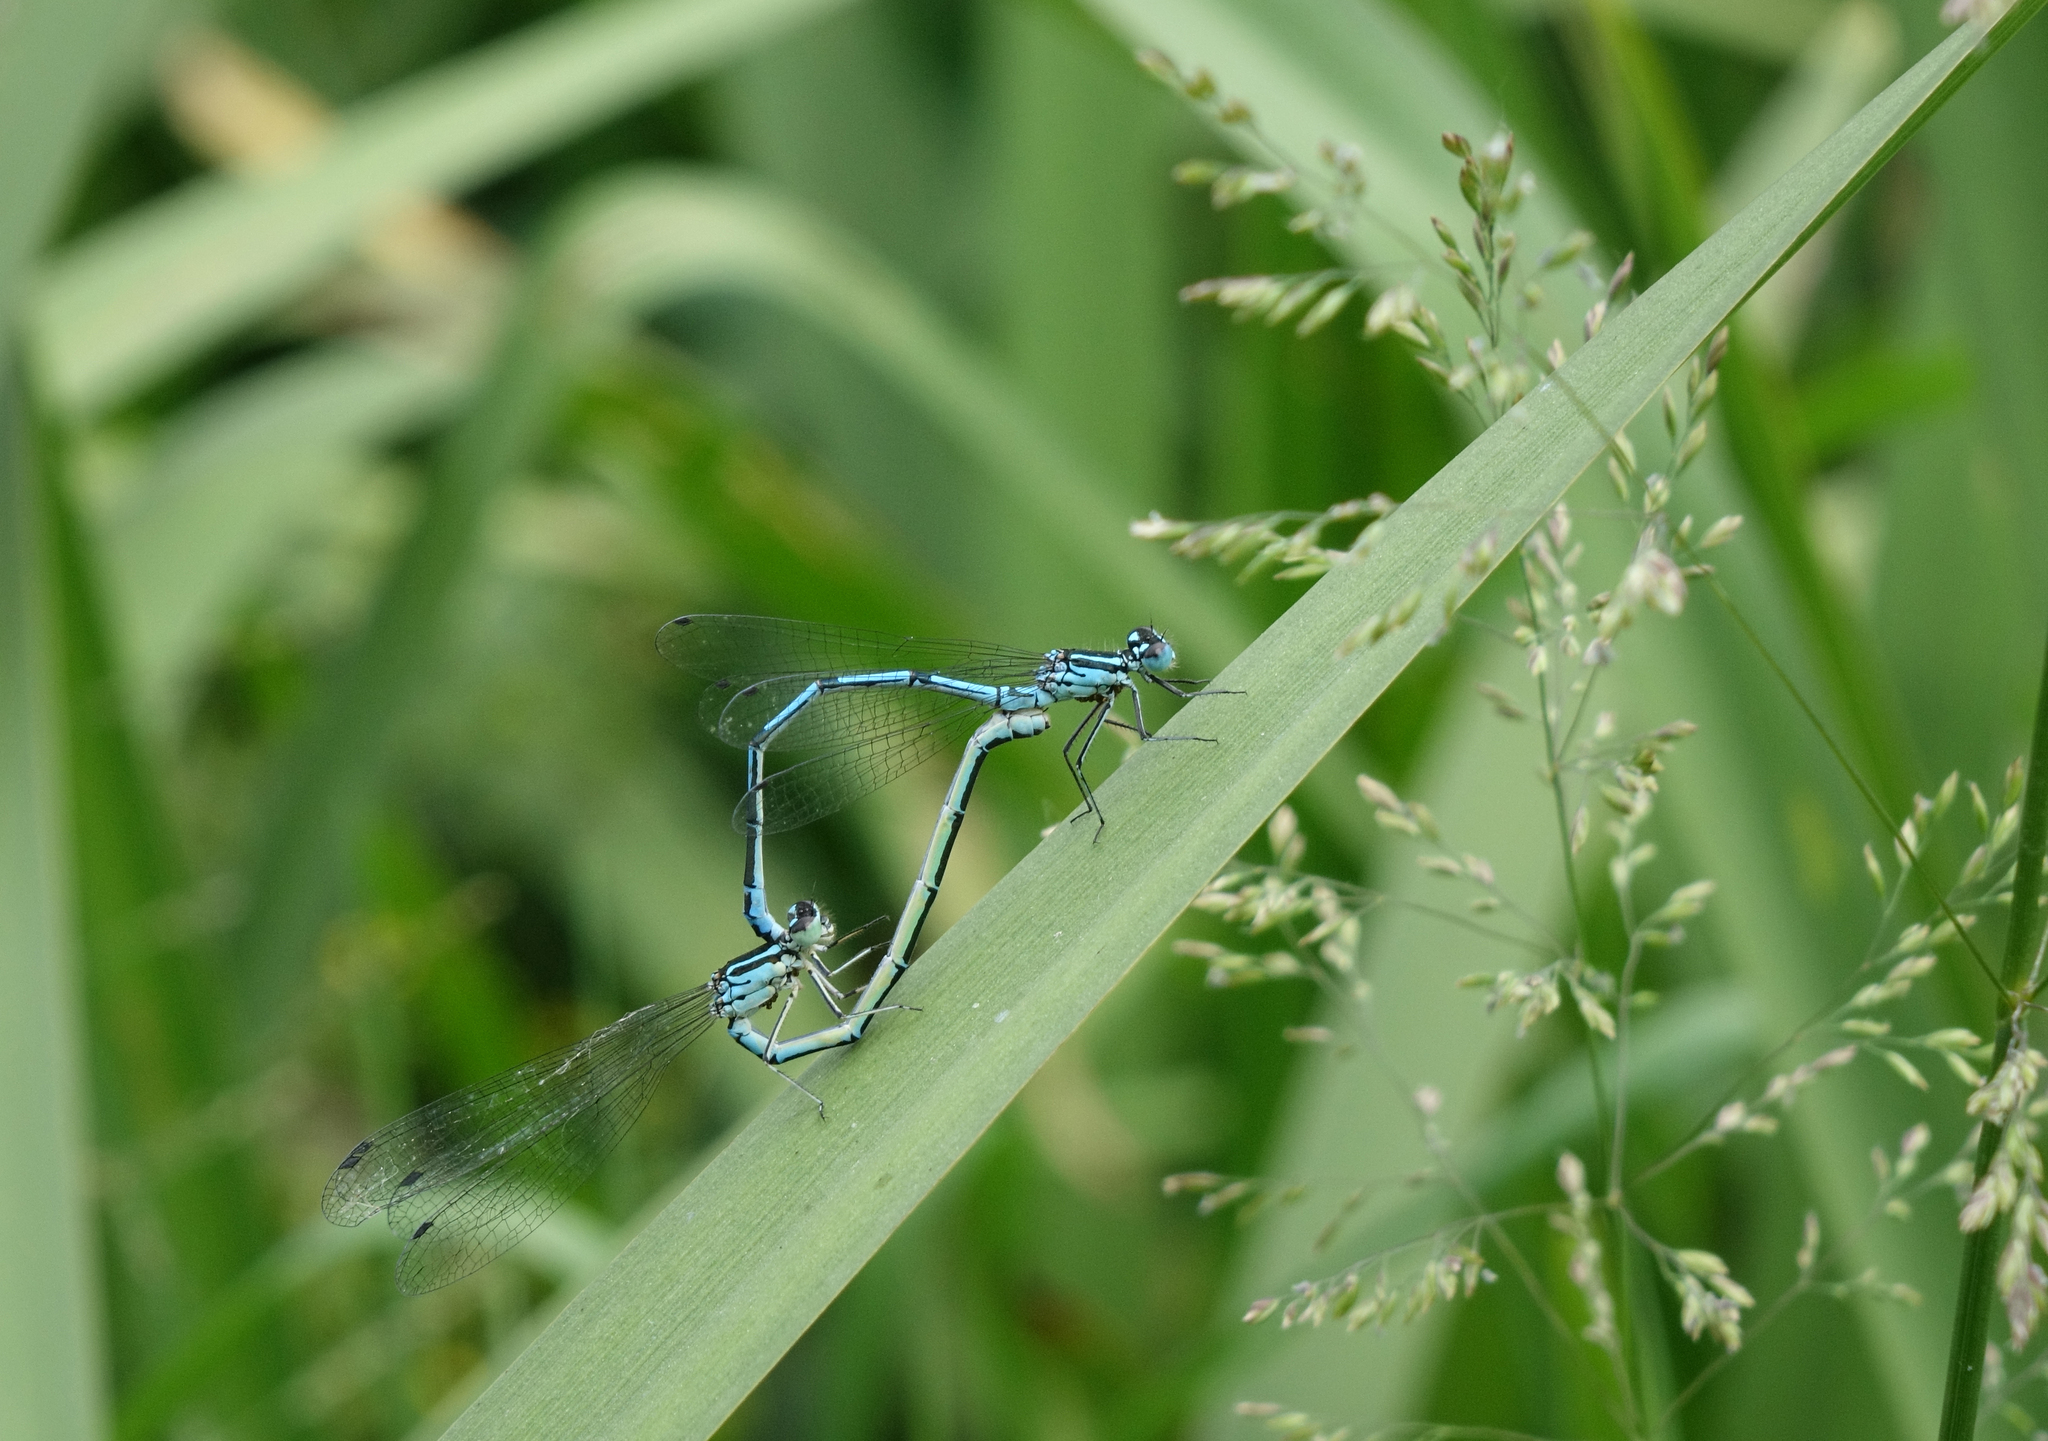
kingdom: Animalia
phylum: Arthropoda
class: Insecta
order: Odonata
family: Coenagrionidae
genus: Coenagrion
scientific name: Coenagrion puella
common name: Azure damselfly
